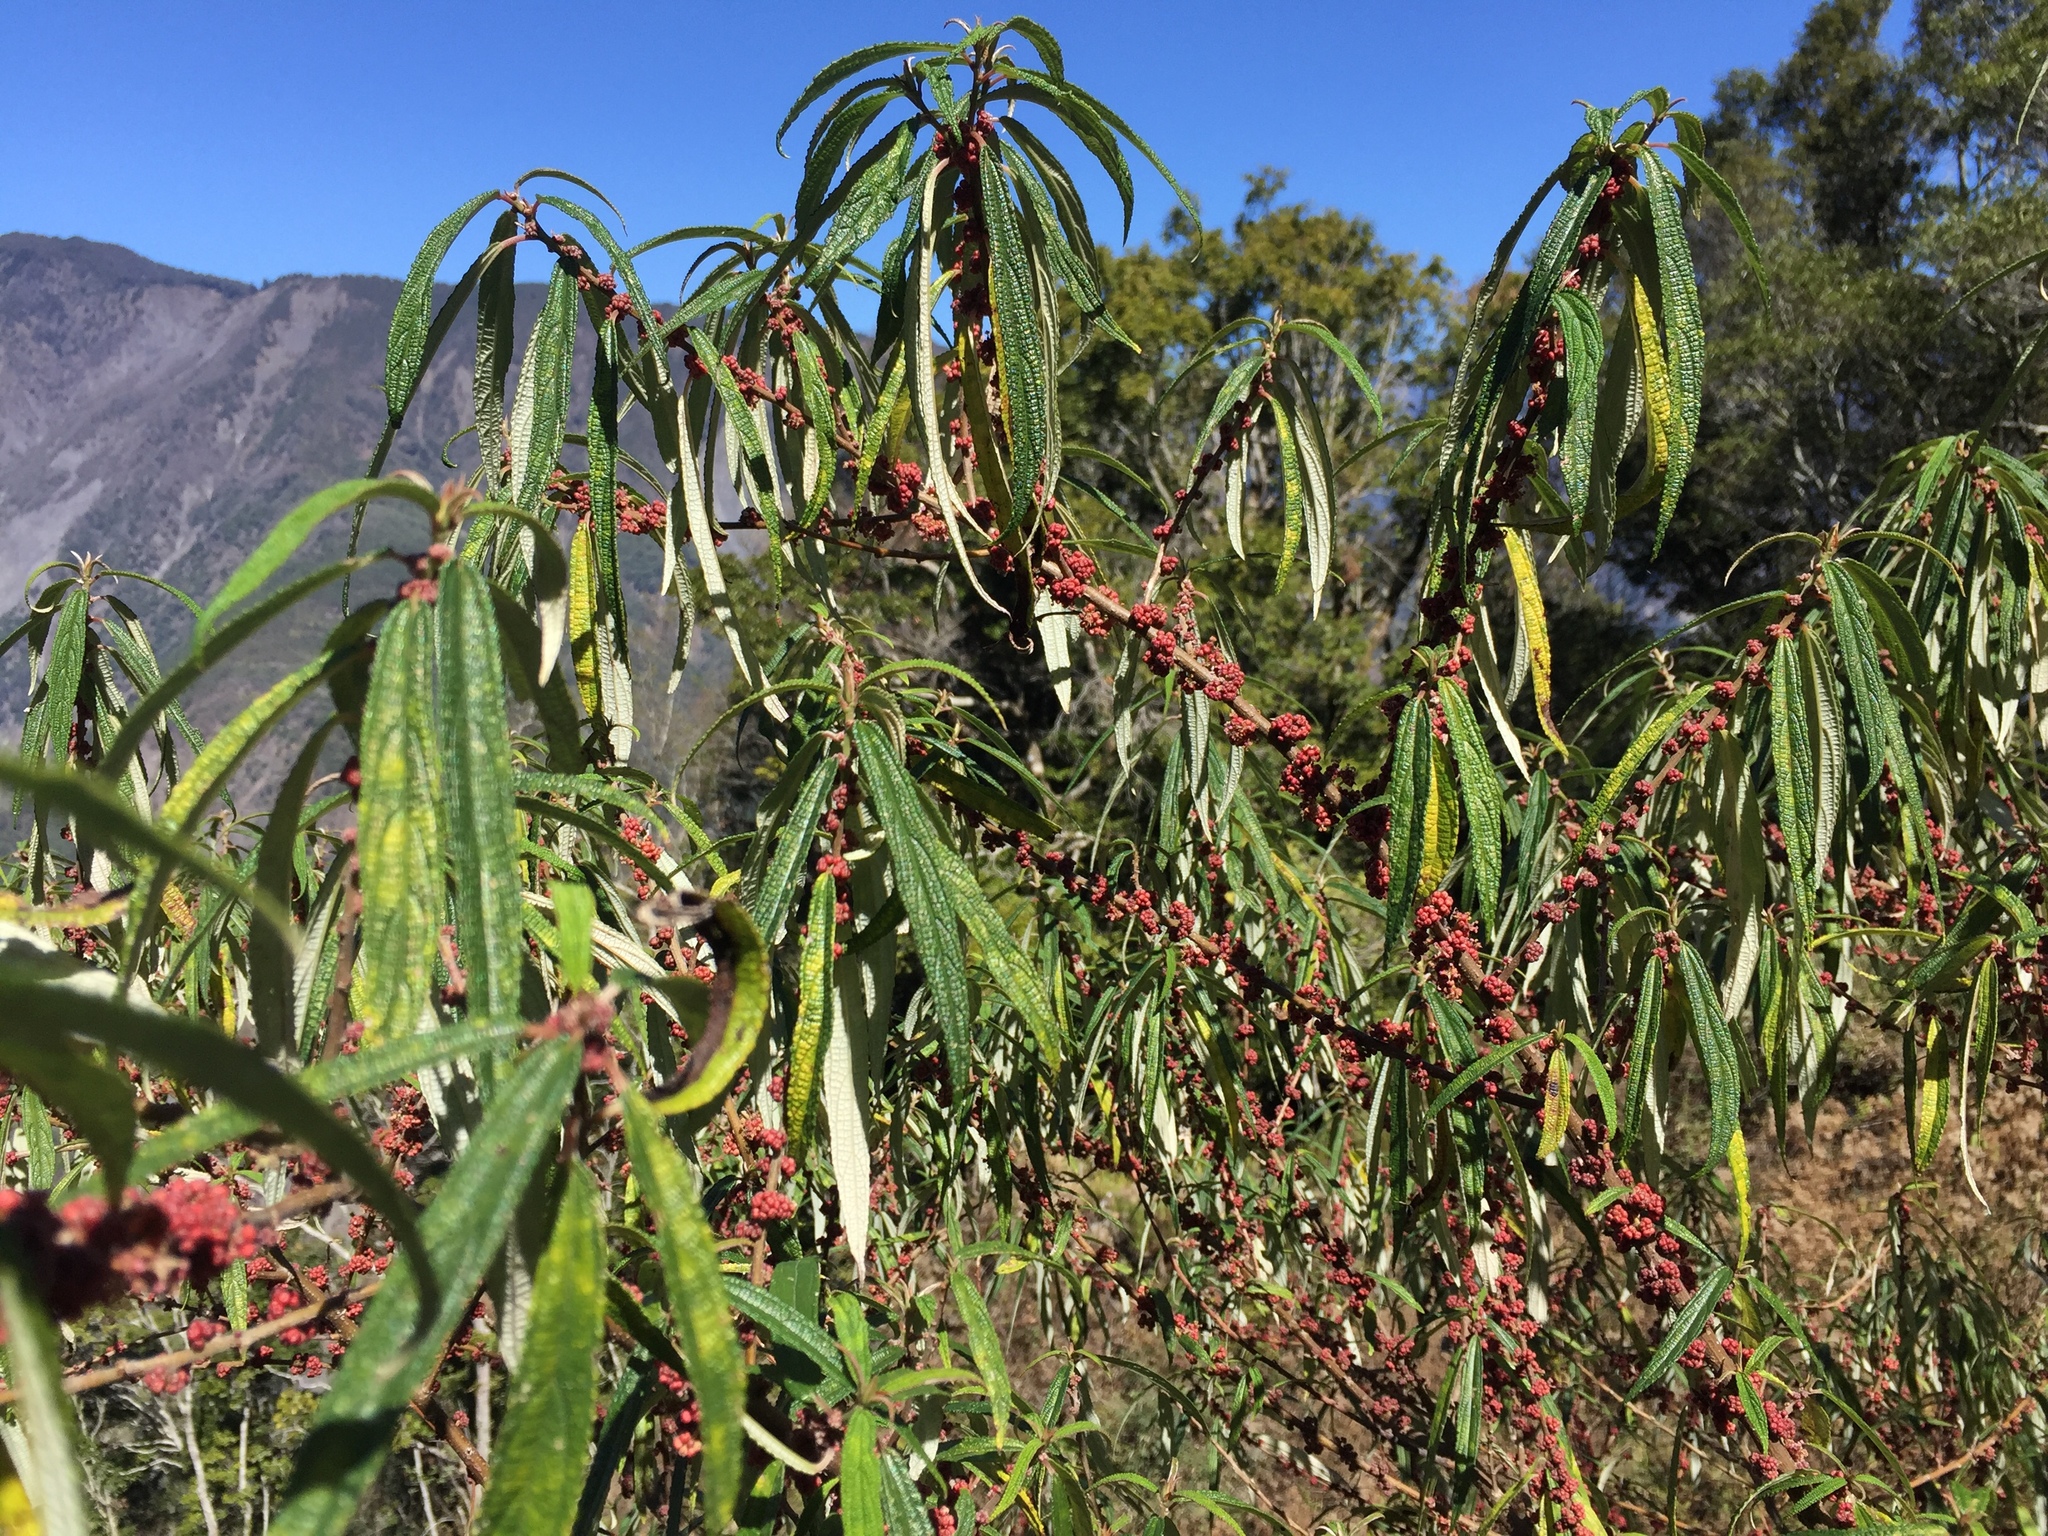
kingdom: Plantae
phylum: Tracheophyta
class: Magnoliopsida
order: Rosales
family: Urticaceae
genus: Debregeasia
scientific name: Debregeasia orientalis
